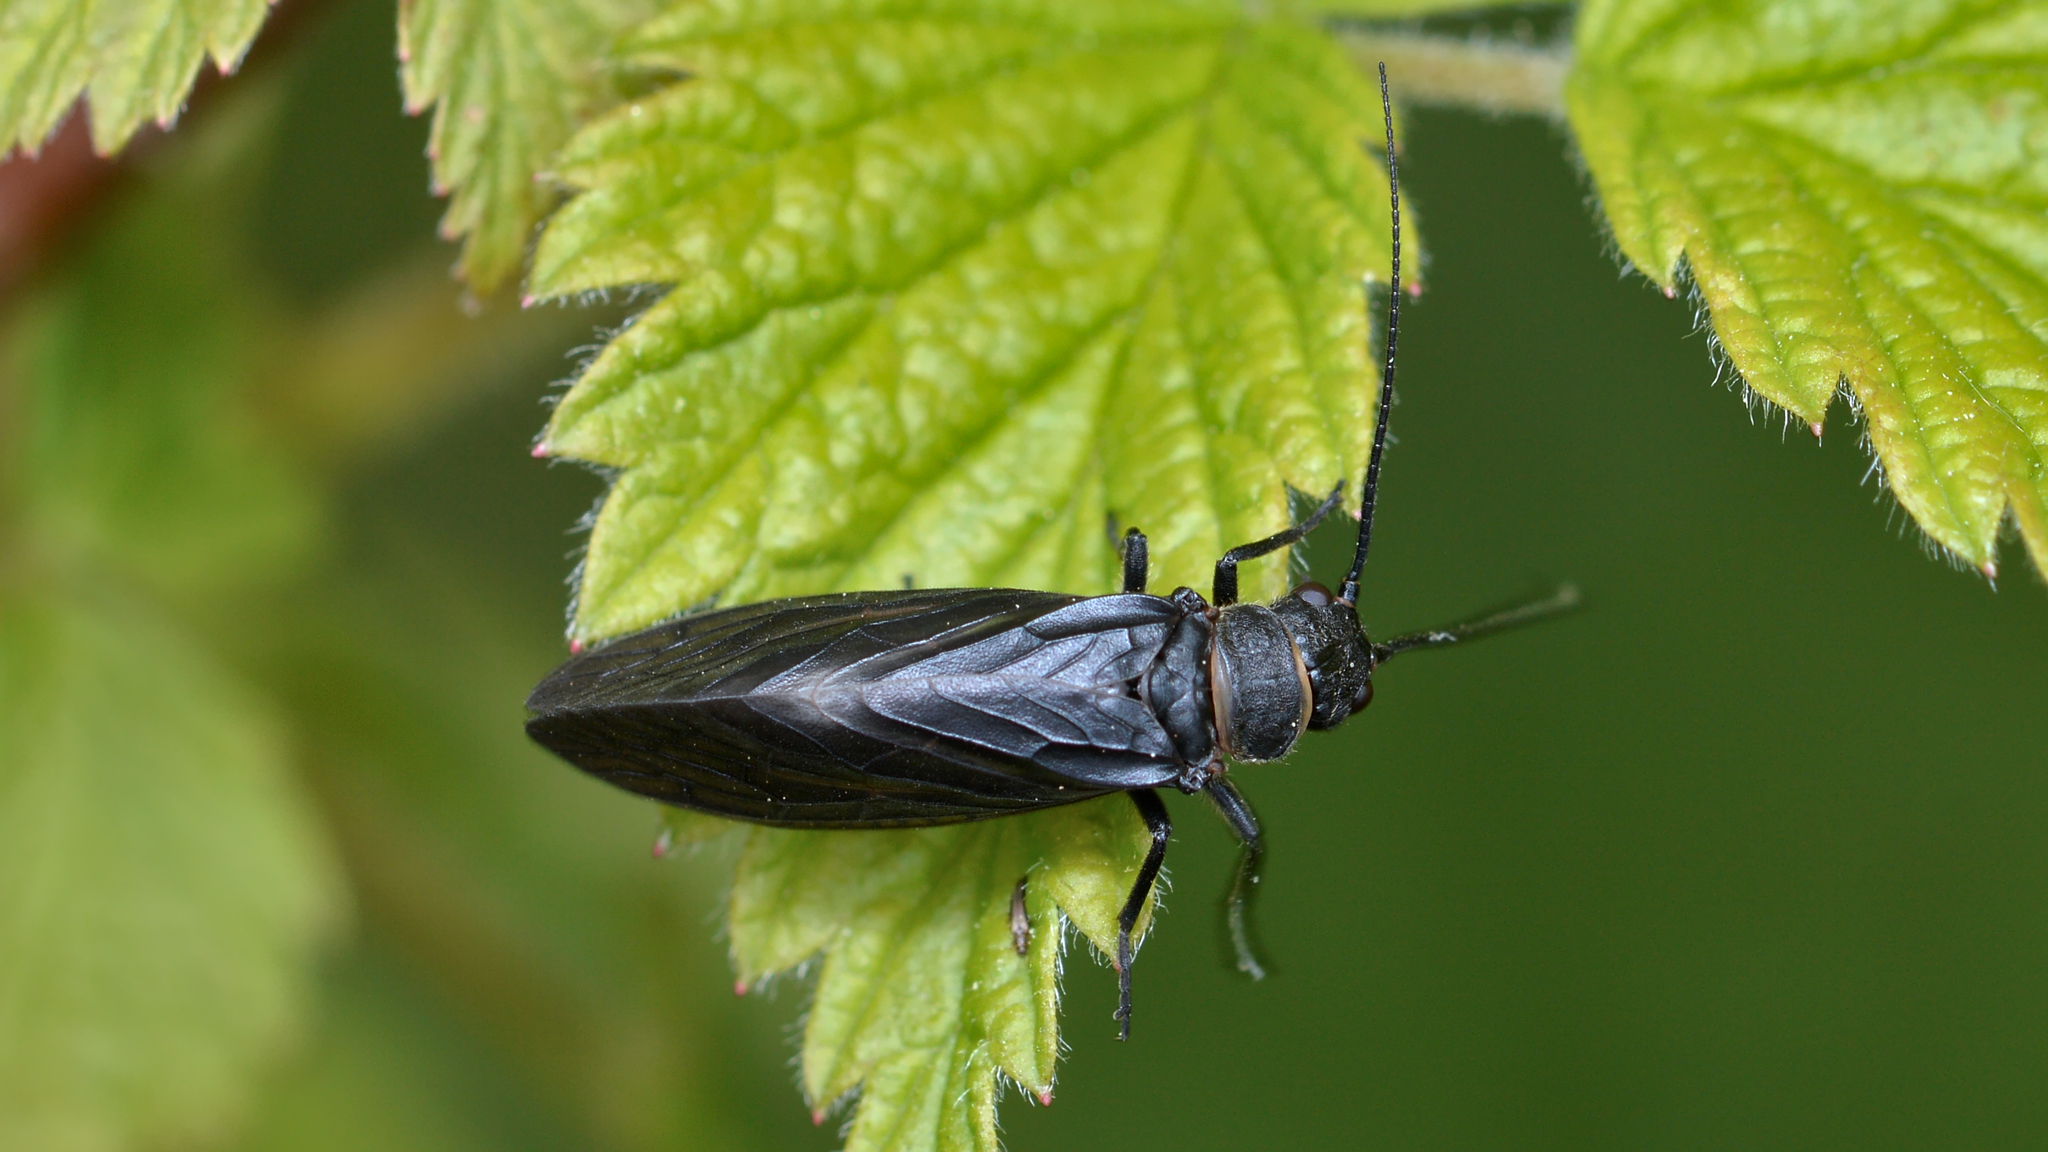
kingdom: Animalia
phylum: Arthropoda
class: Insecta
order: Megaloptera
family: Sialidae
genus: Sialis
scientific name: Sialis
